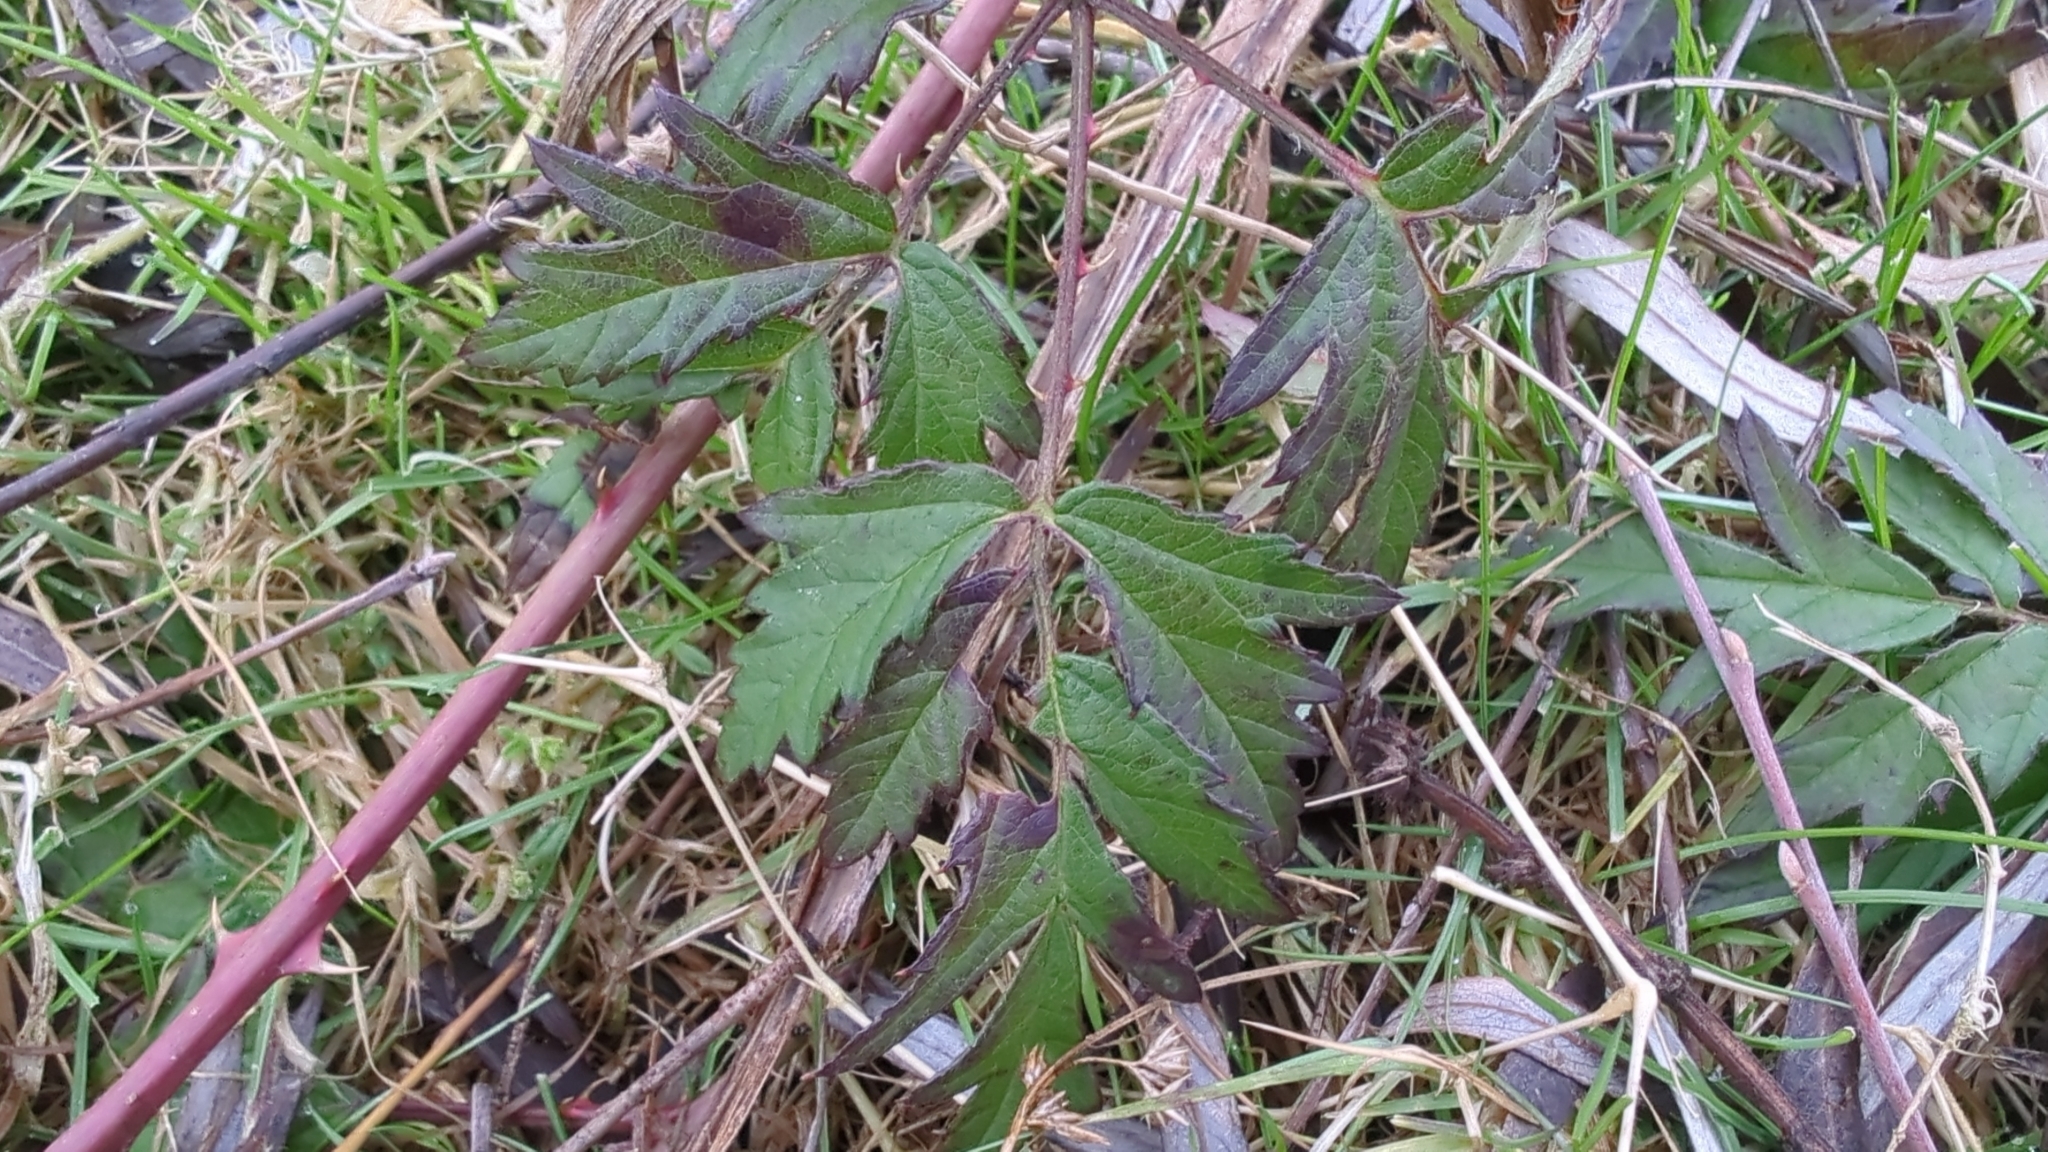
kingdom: Plantae
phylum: Tracheophyta
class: Magnoliopsida
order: Rosales
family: Rosaceae
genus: Rubus
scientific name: Rubus laciniatus
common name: Evergreen blackberry
